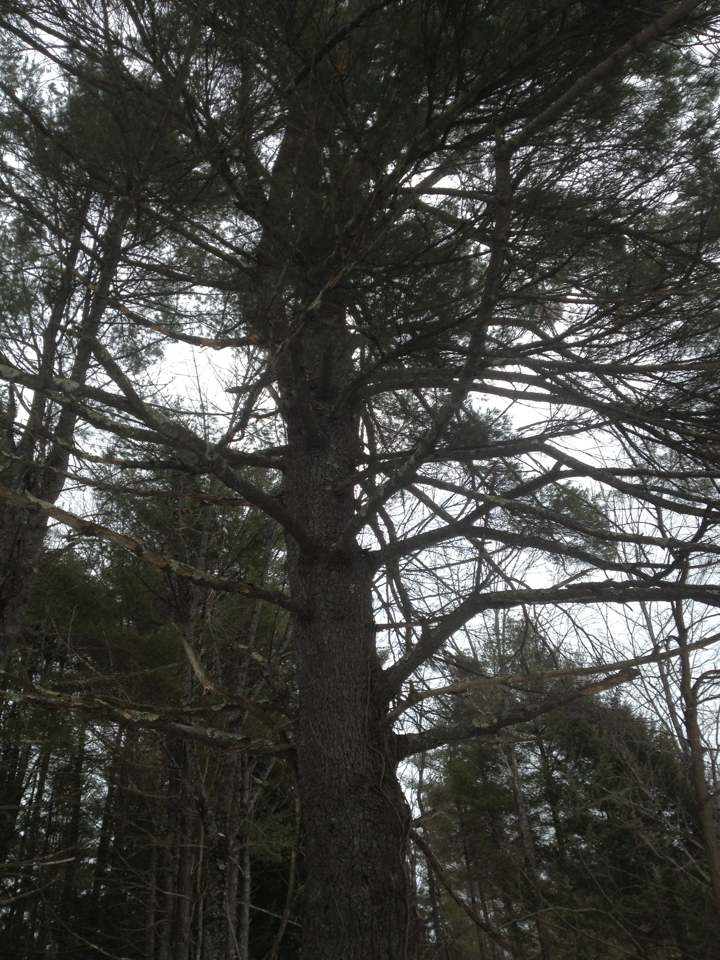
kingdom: Plantae
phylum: Tracheophyta
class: Pinopsida
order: Pinales
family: Pinaceae
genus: Pinus
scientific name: Pinus strobus
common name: Weymouth pine
